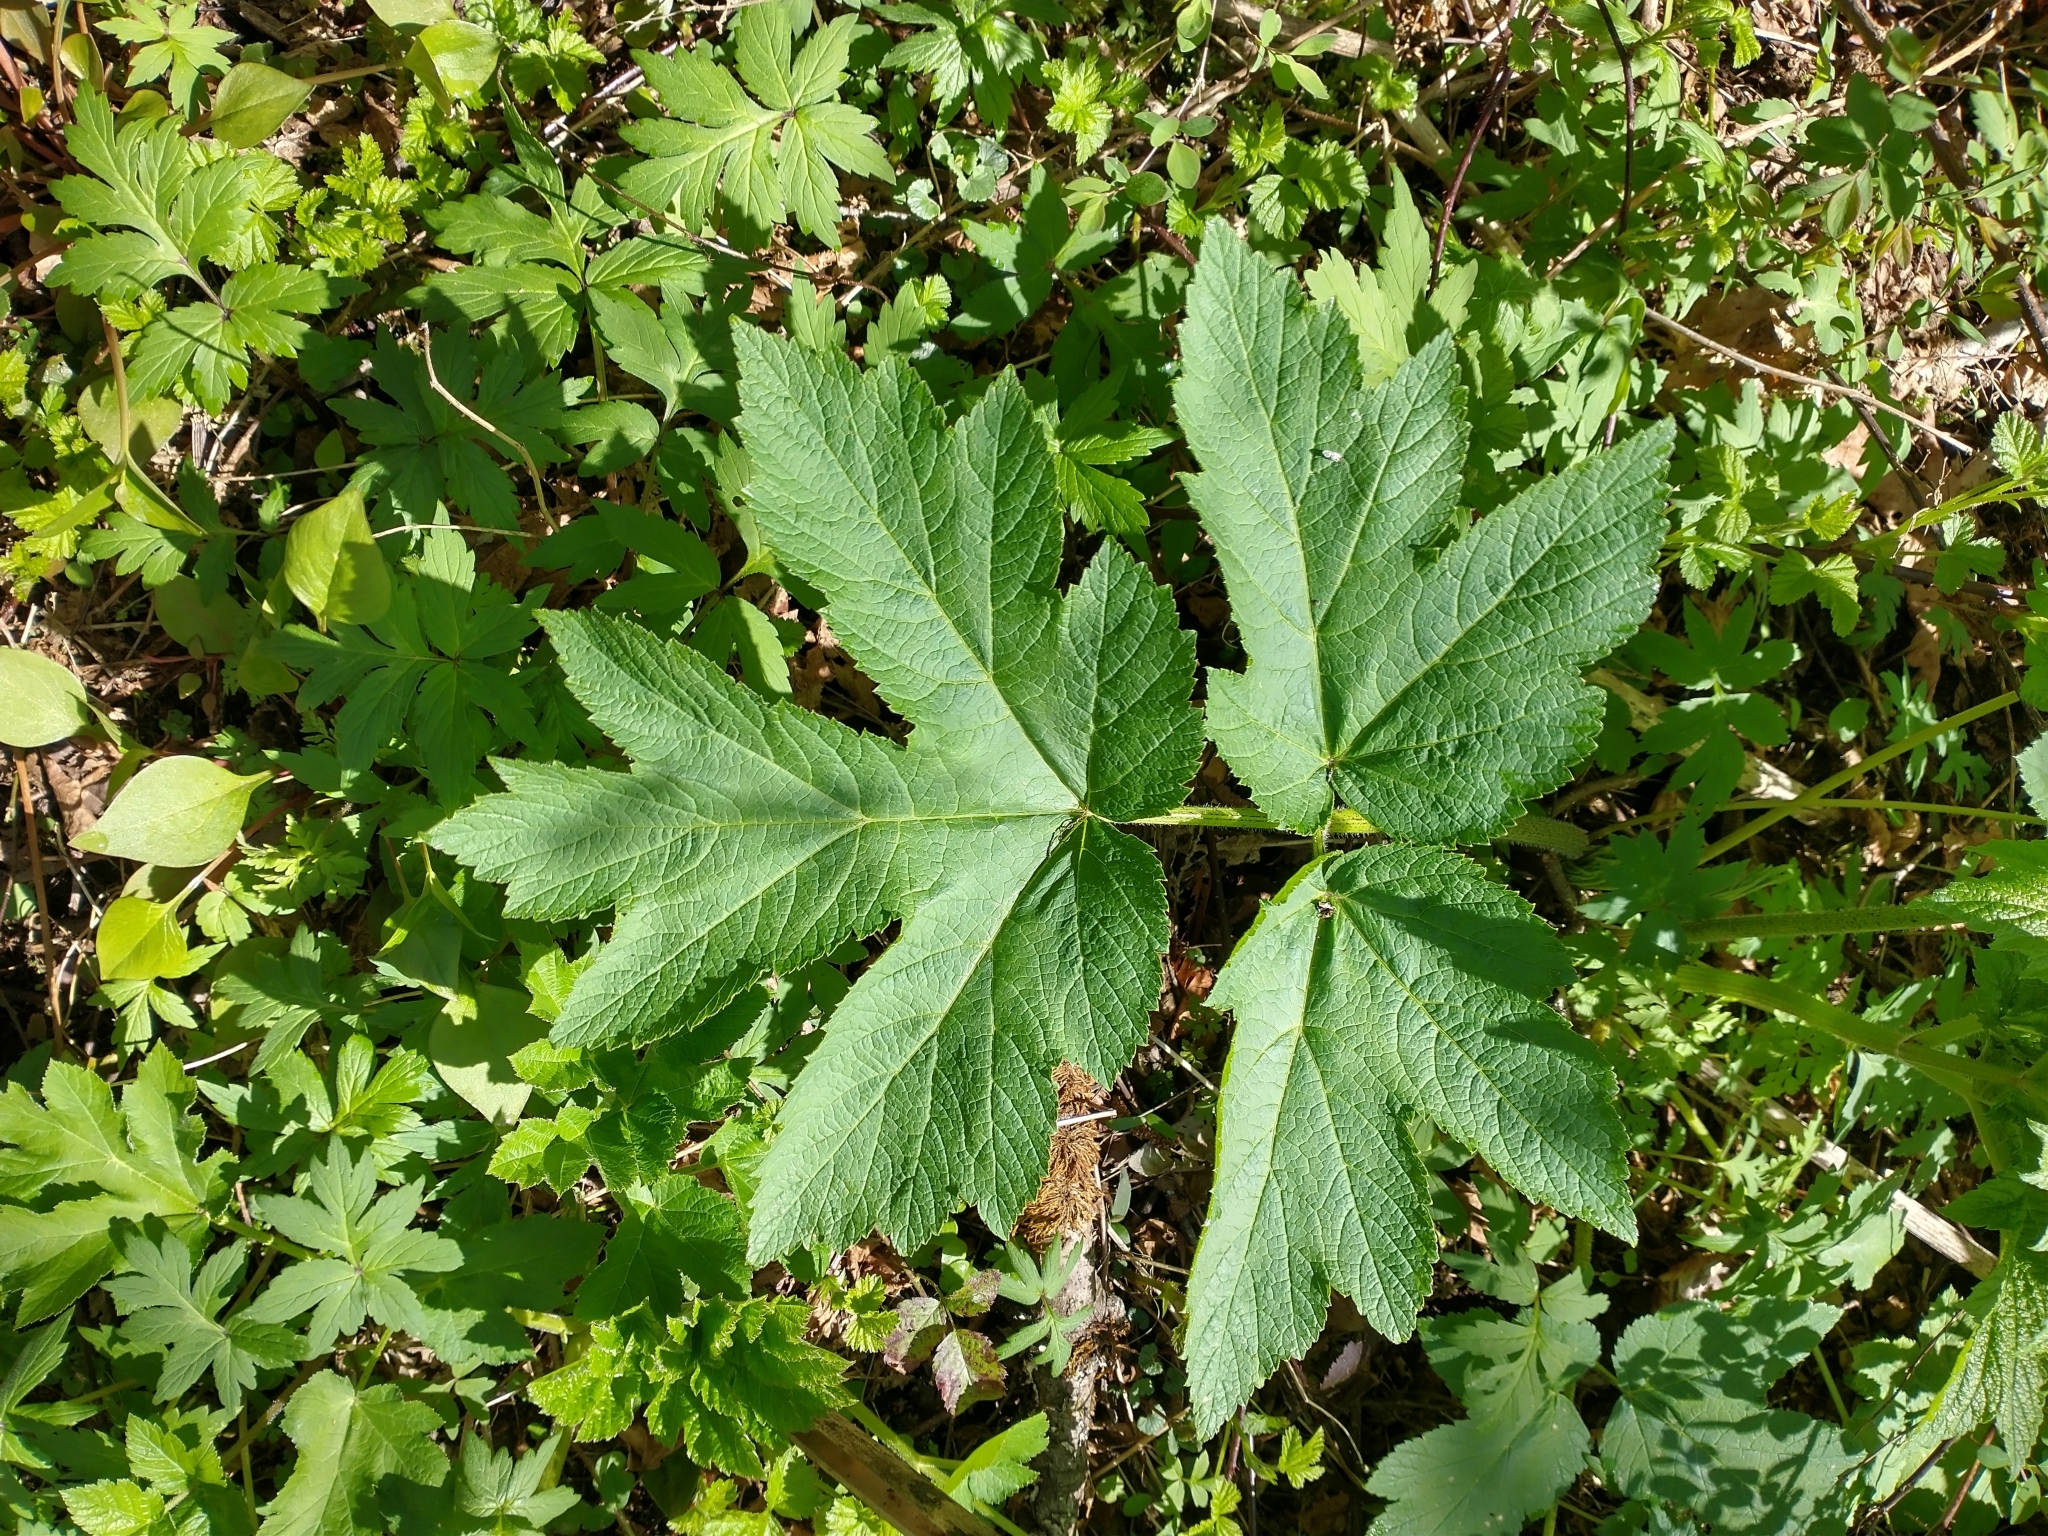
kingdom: Plantae
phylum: Tracheophyta
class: Magnoliopsida
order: Apiales
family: Apiaceae
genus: Heracleum
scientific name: Heracleum maximum
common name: American cow parsnip
